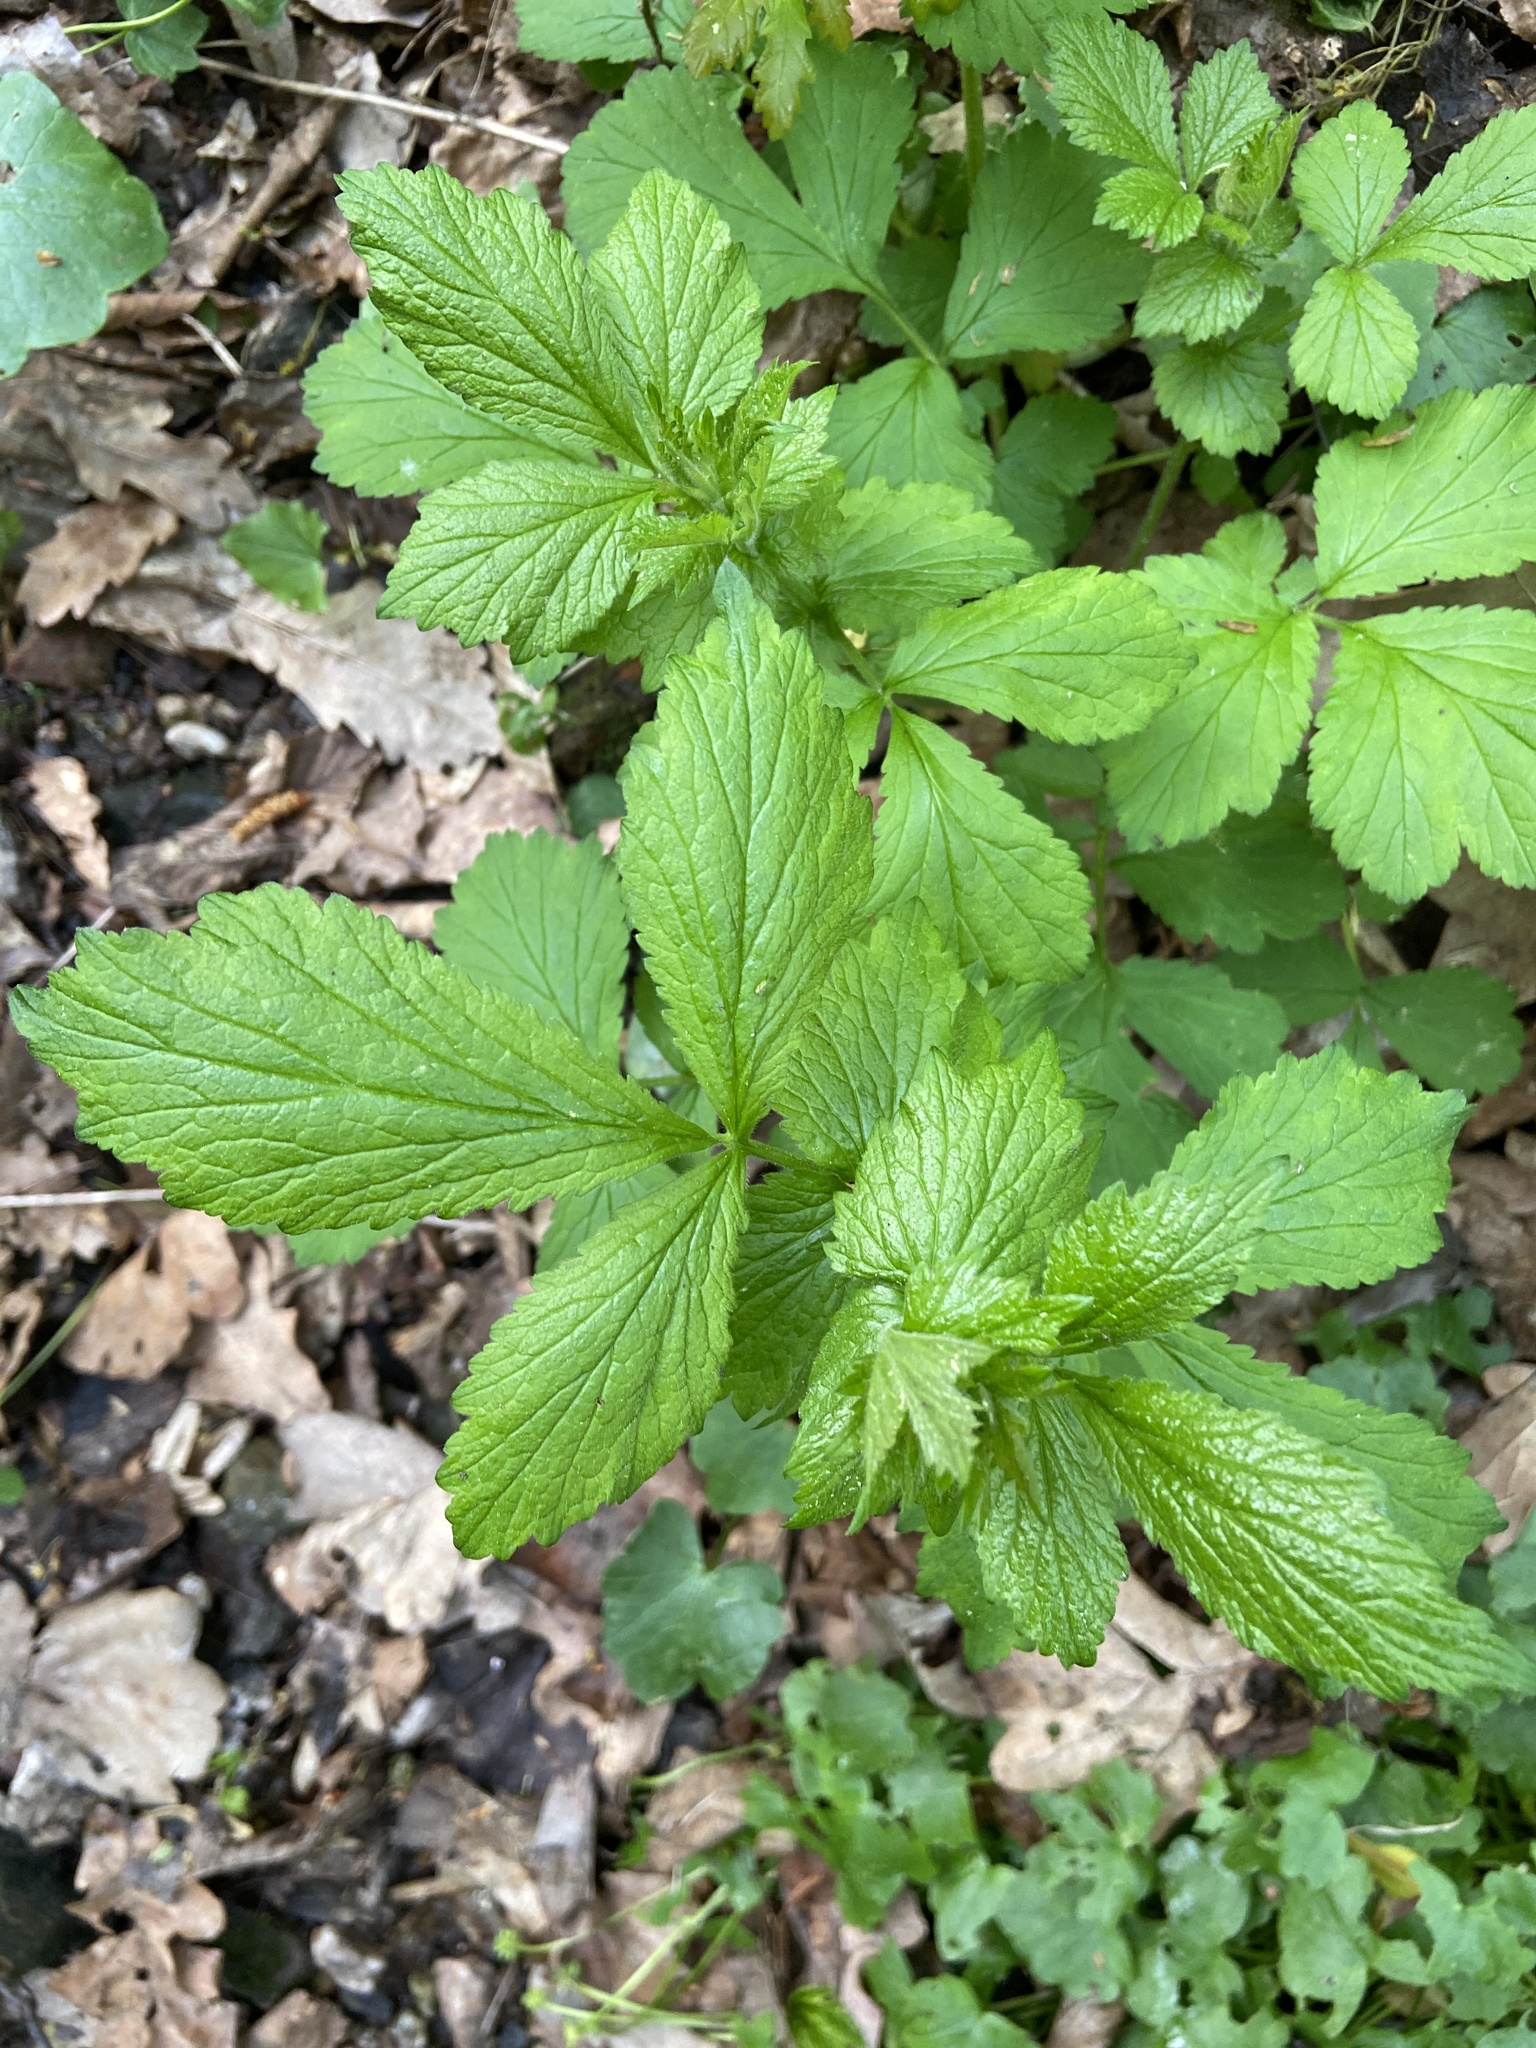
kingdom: Plantae
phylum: Tracheophyta
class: Magnoliopsida
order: Rosales
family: Rosaceae
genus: Geum
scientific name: Geum urbanum
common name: Wood avens
